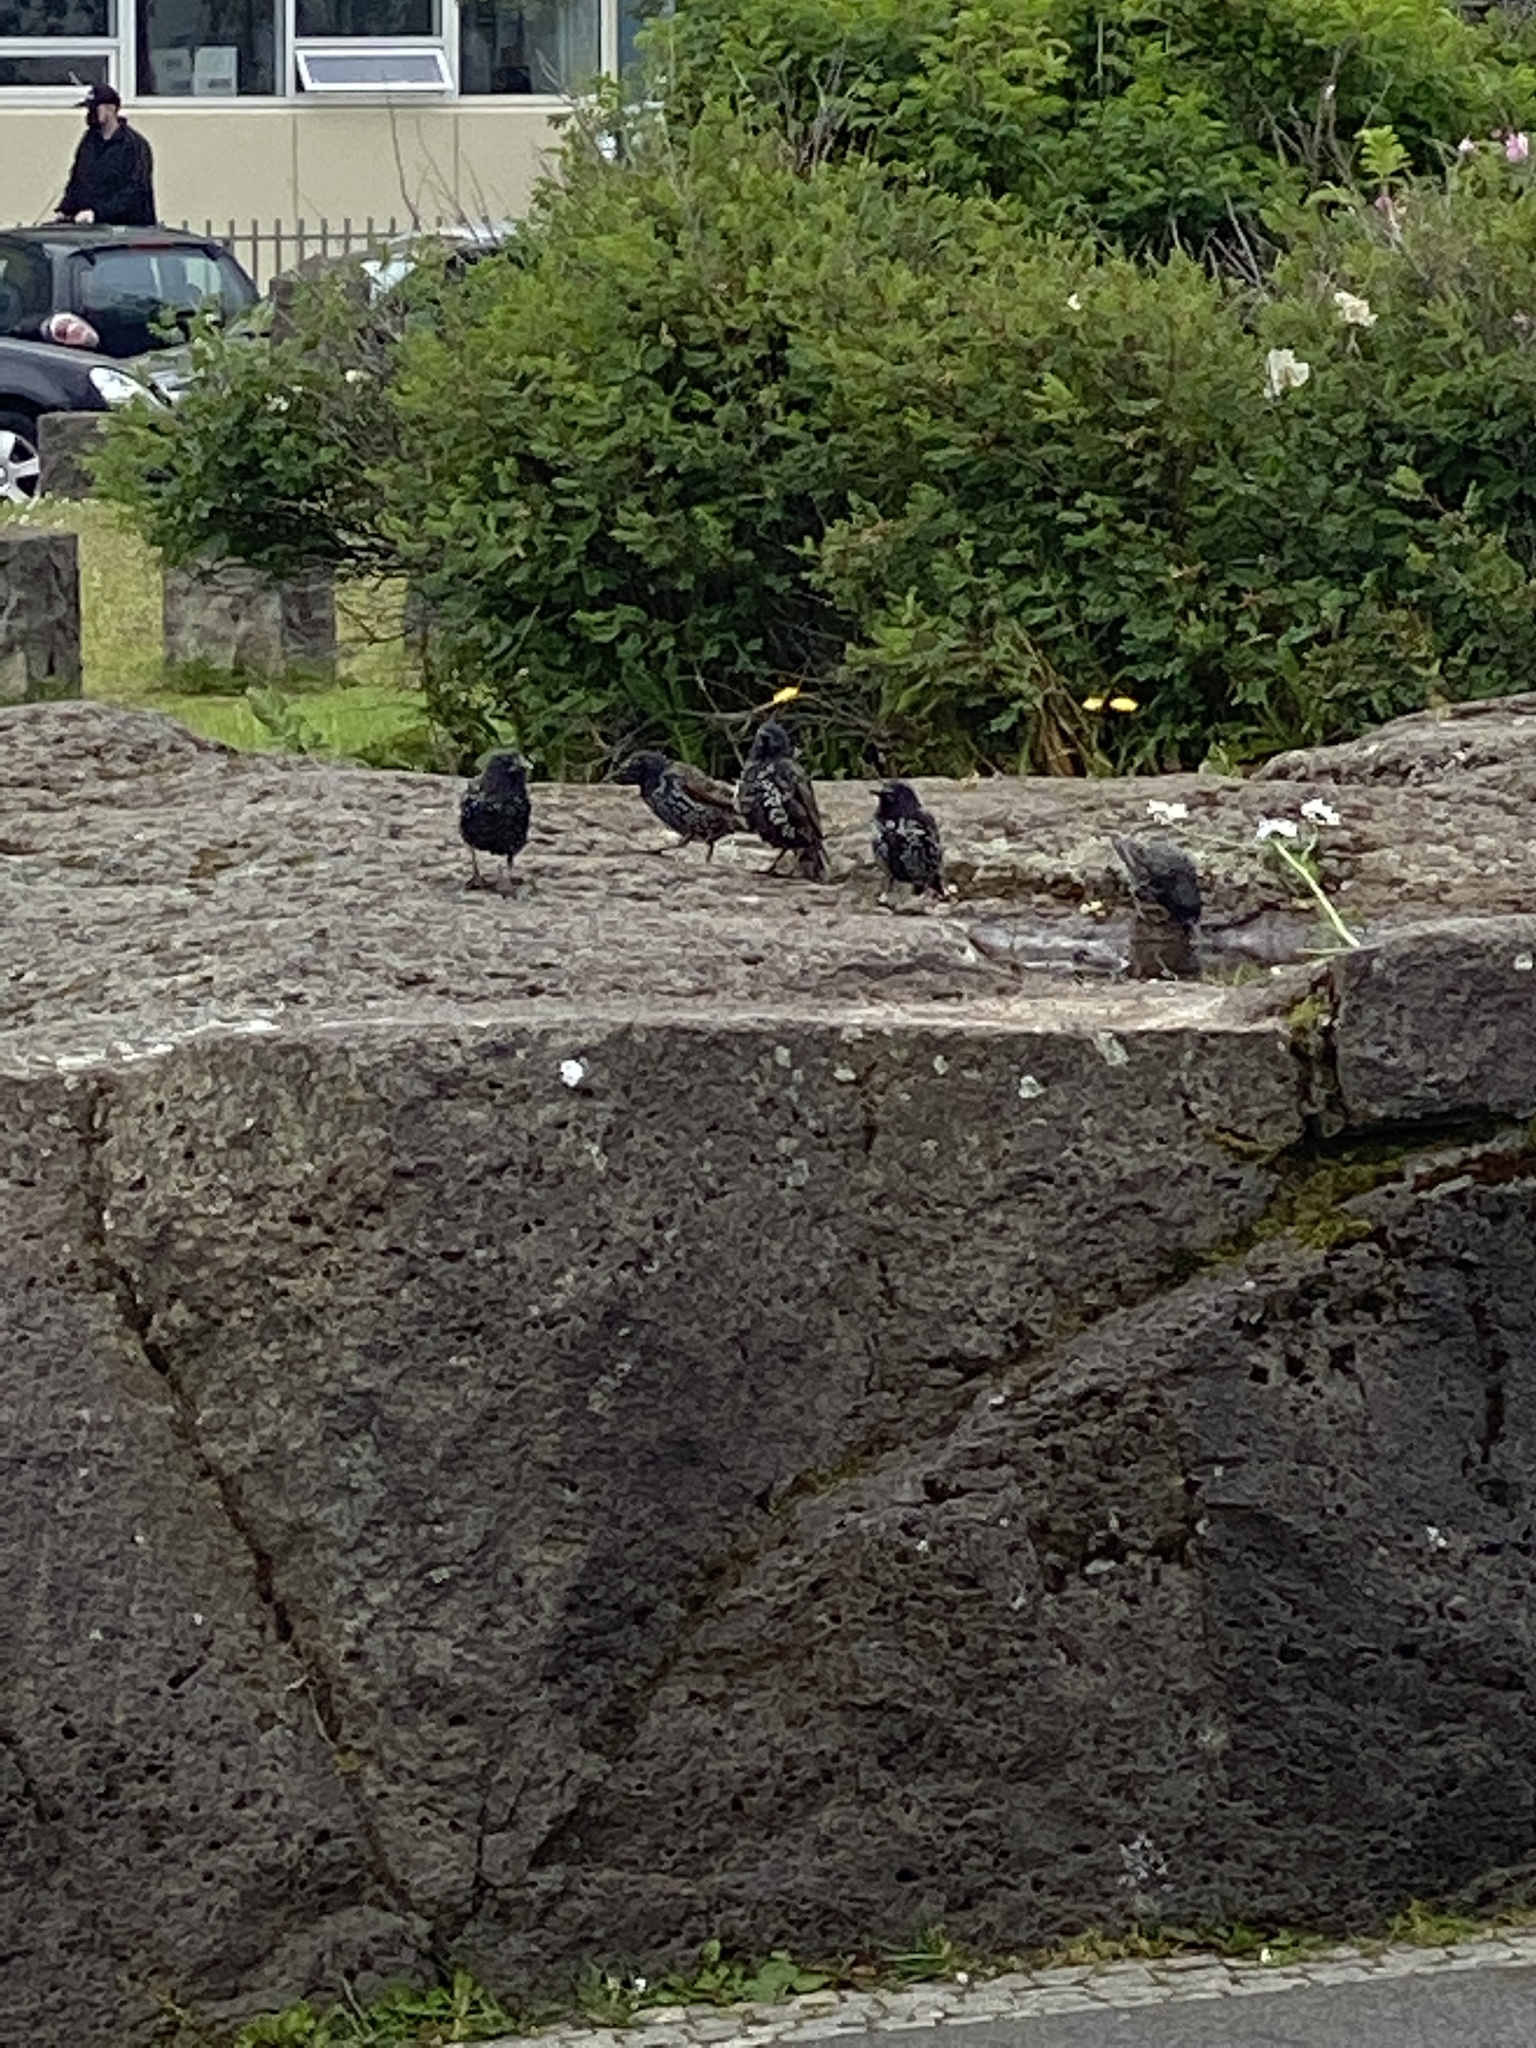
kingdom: Animalia
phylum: Chordata
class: Aves
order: Passeriformes
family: Sturnidae
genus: Sturnus
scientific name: Sturnus vulgaris
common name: Common starling
